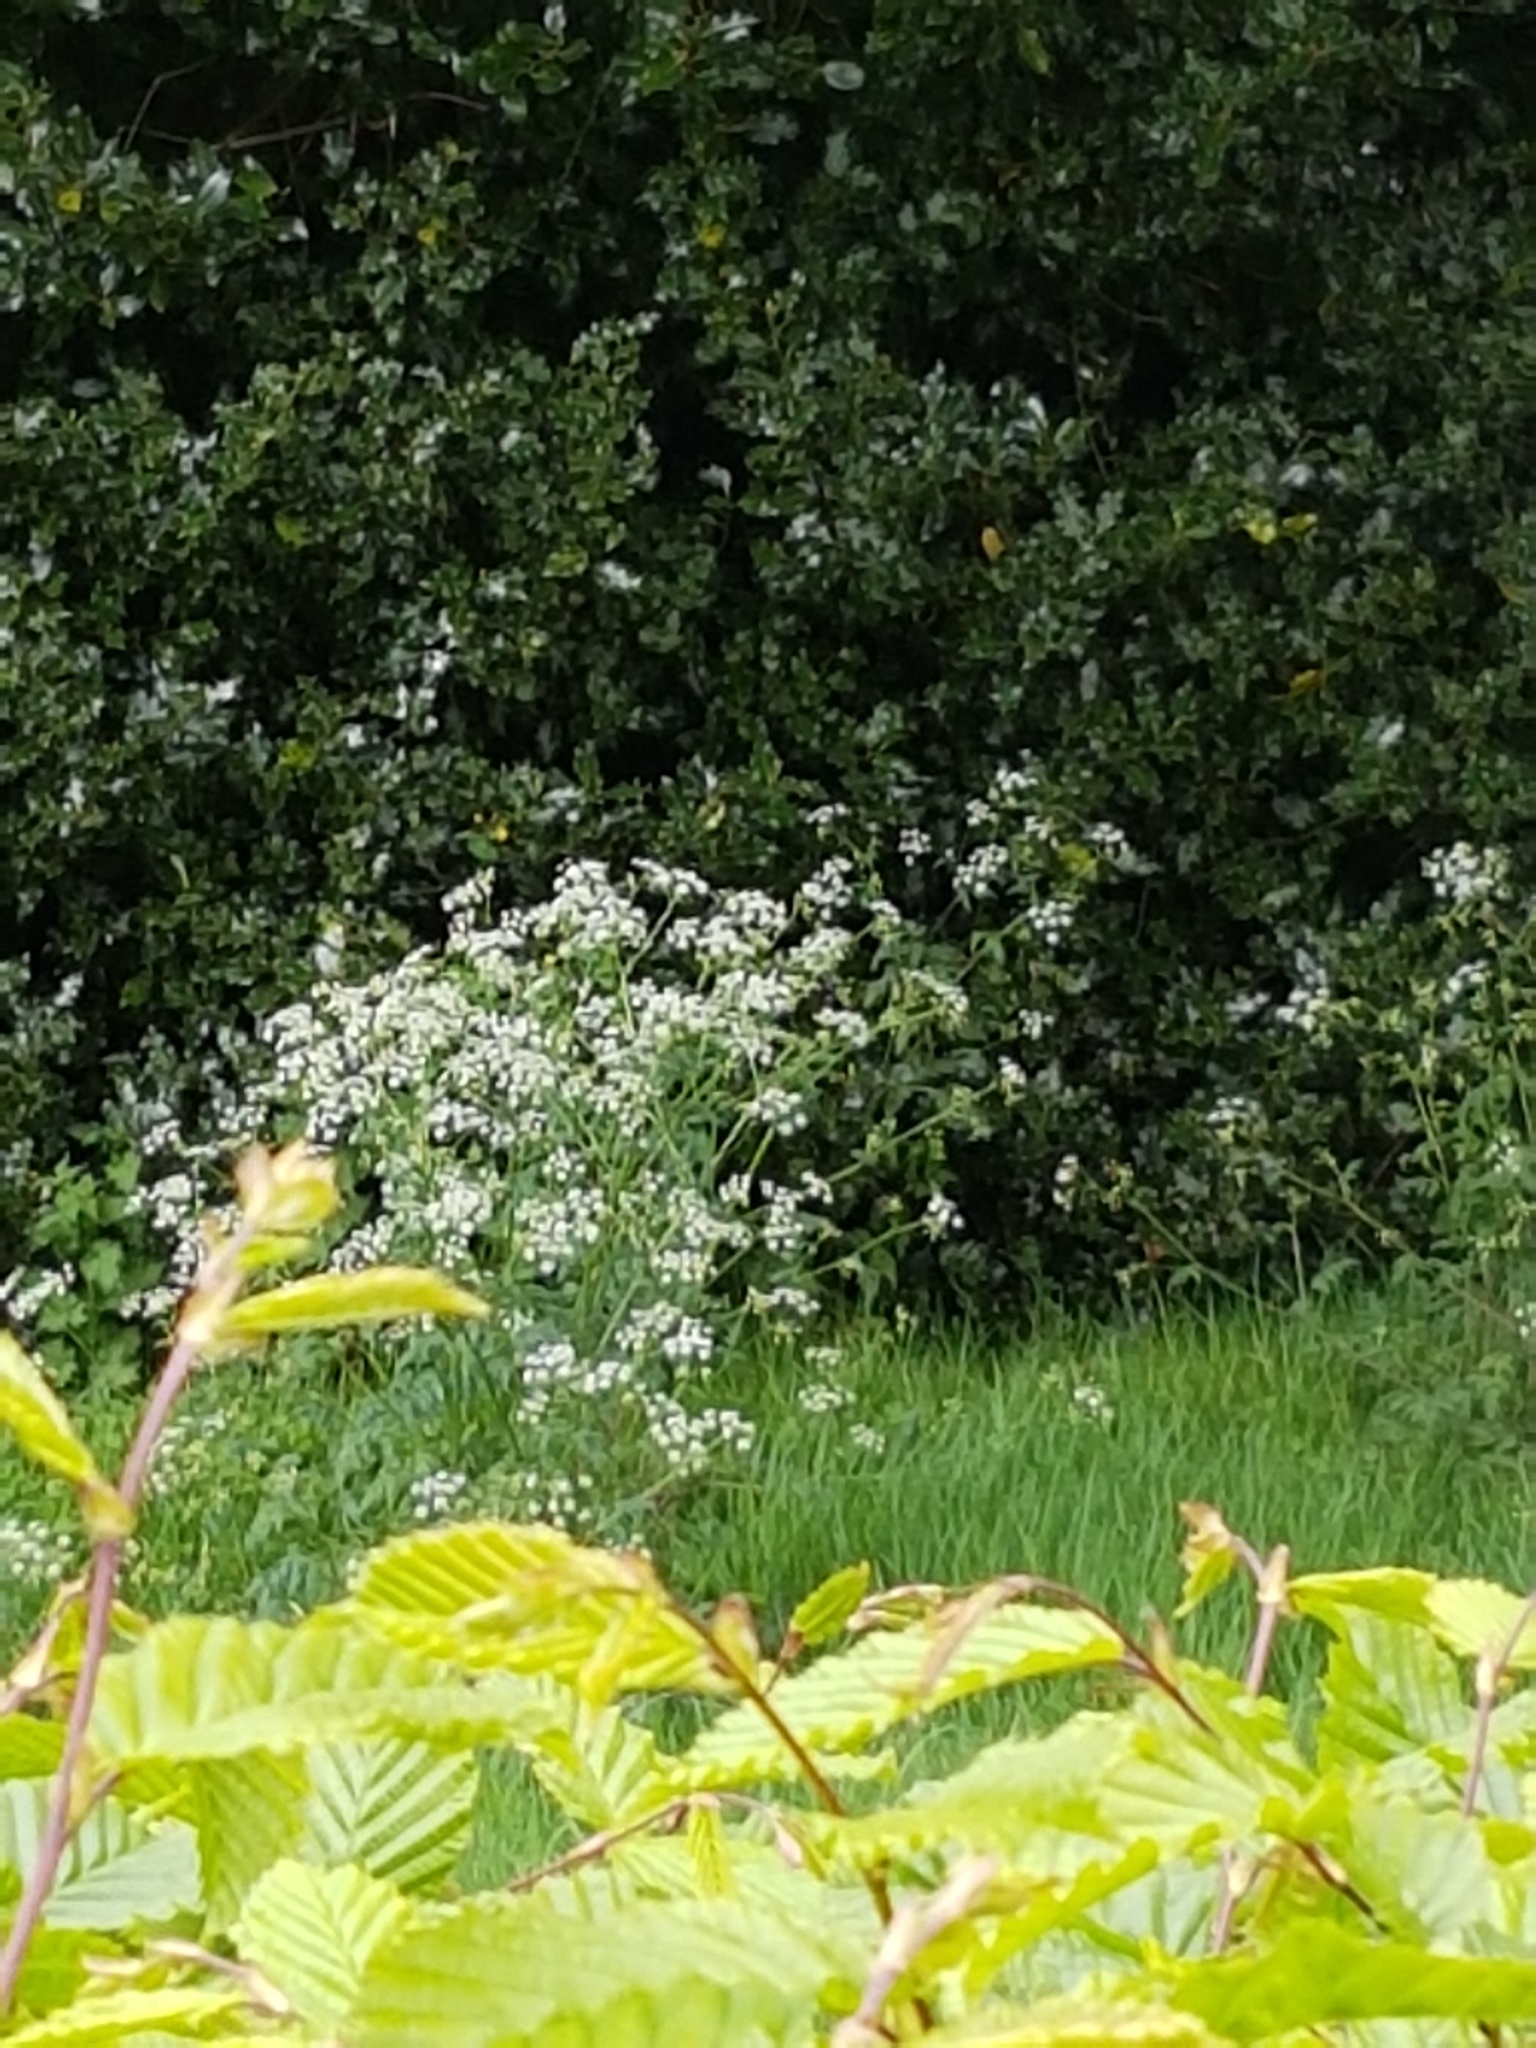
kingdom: Plantae
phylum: Tracheophyta
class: Magnoliopsida
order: Apiales
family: Apiaceae
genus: Anthriscus
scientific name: Anthriscus sylvestris
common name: Cow parsley
